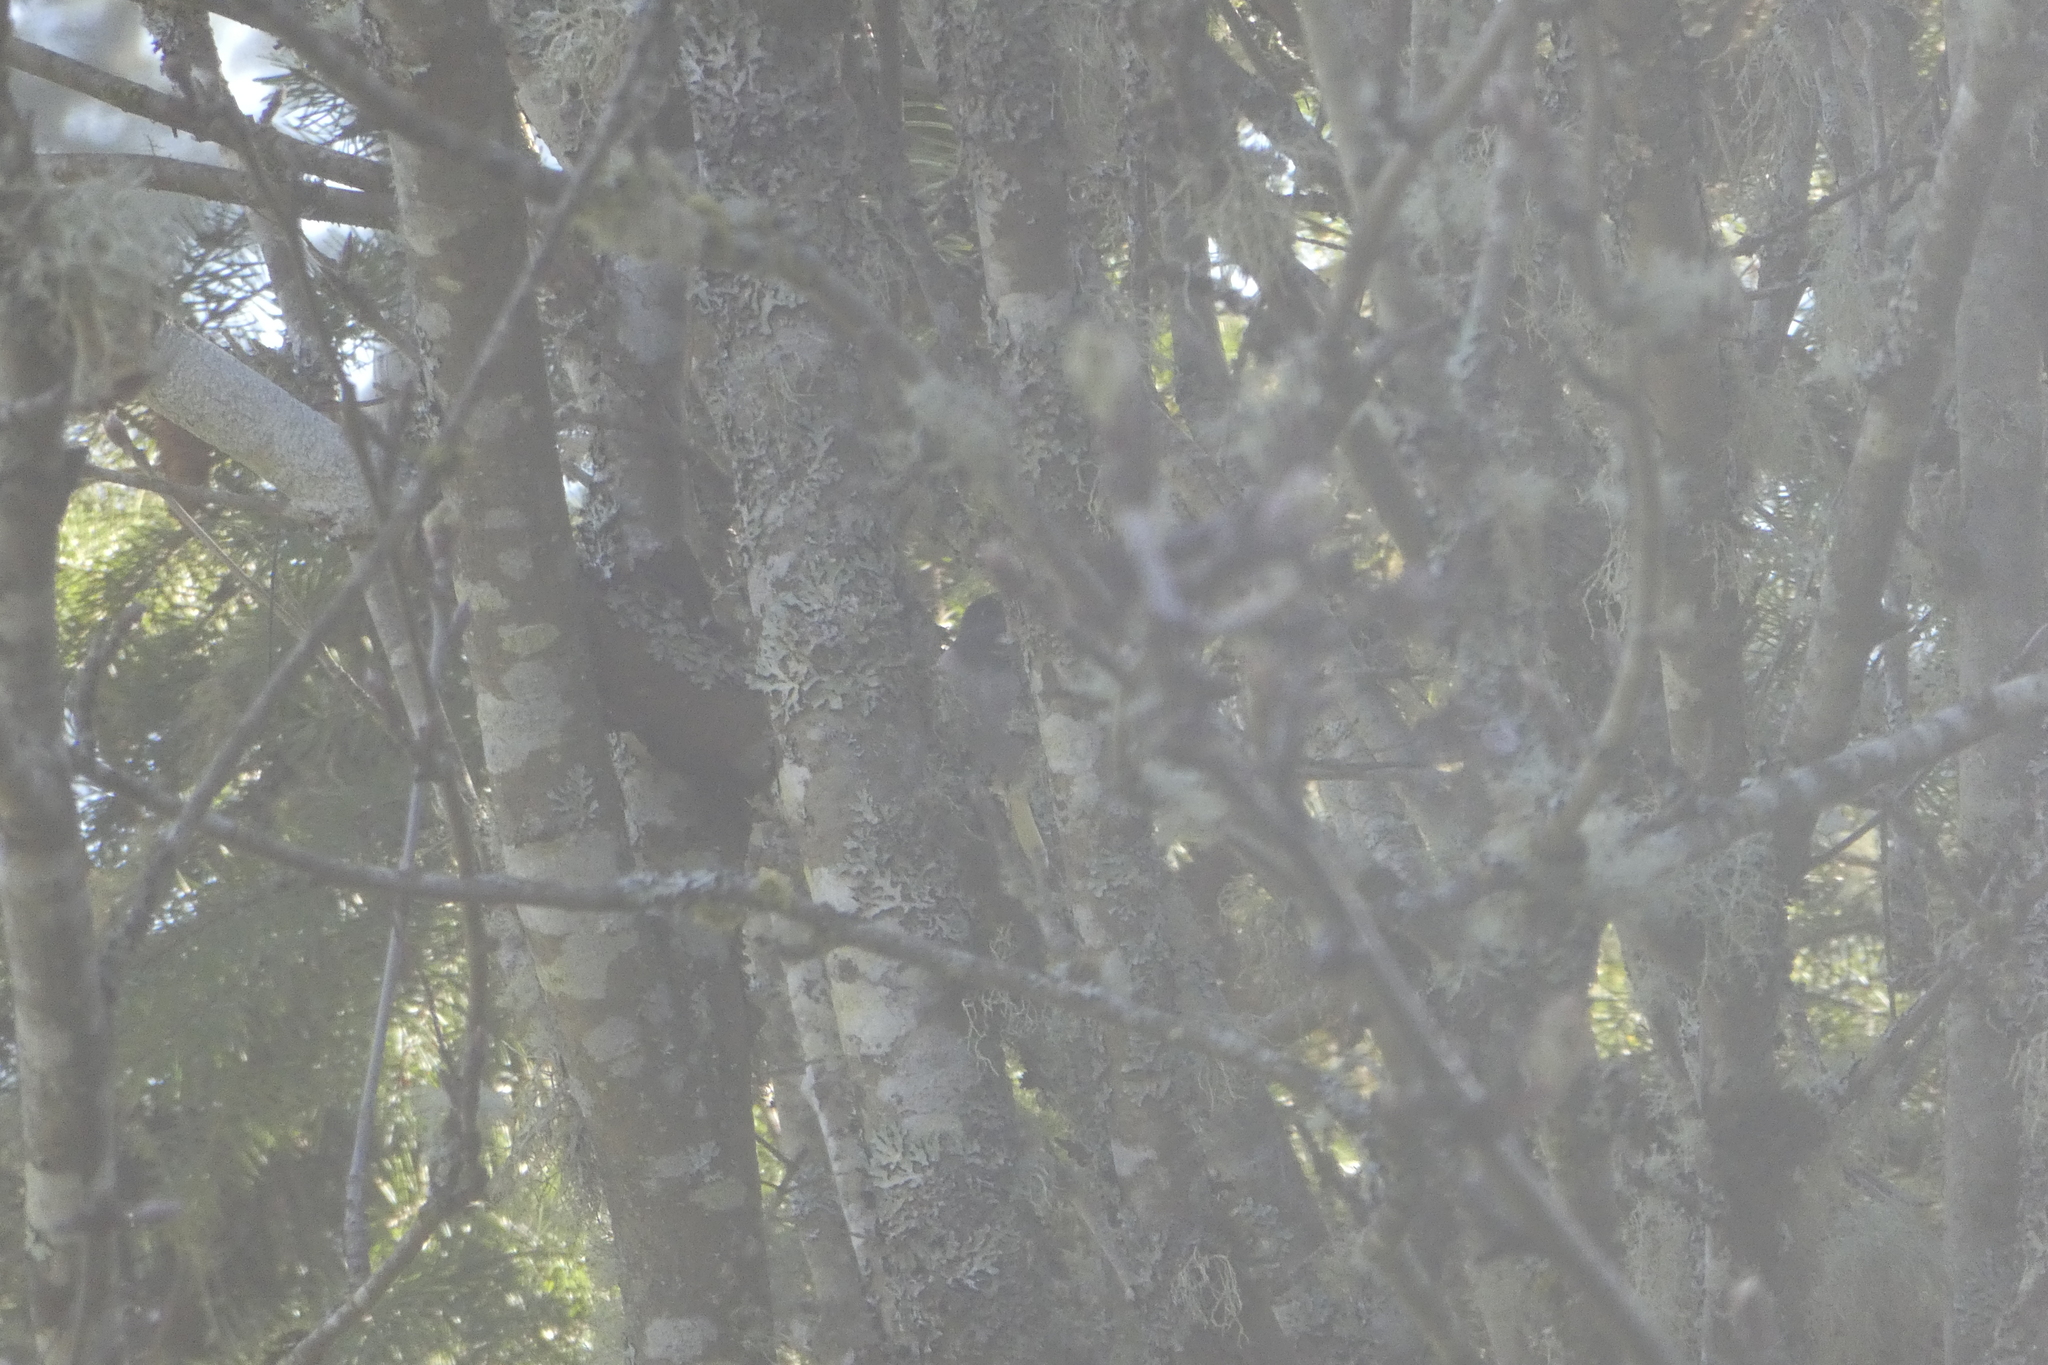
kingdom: Animalia
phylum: Chordata
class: Aves
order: Passeriformes
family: Passerellidae
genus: Junco
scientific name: Junco hyemalis
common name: Dark-eyed junco
